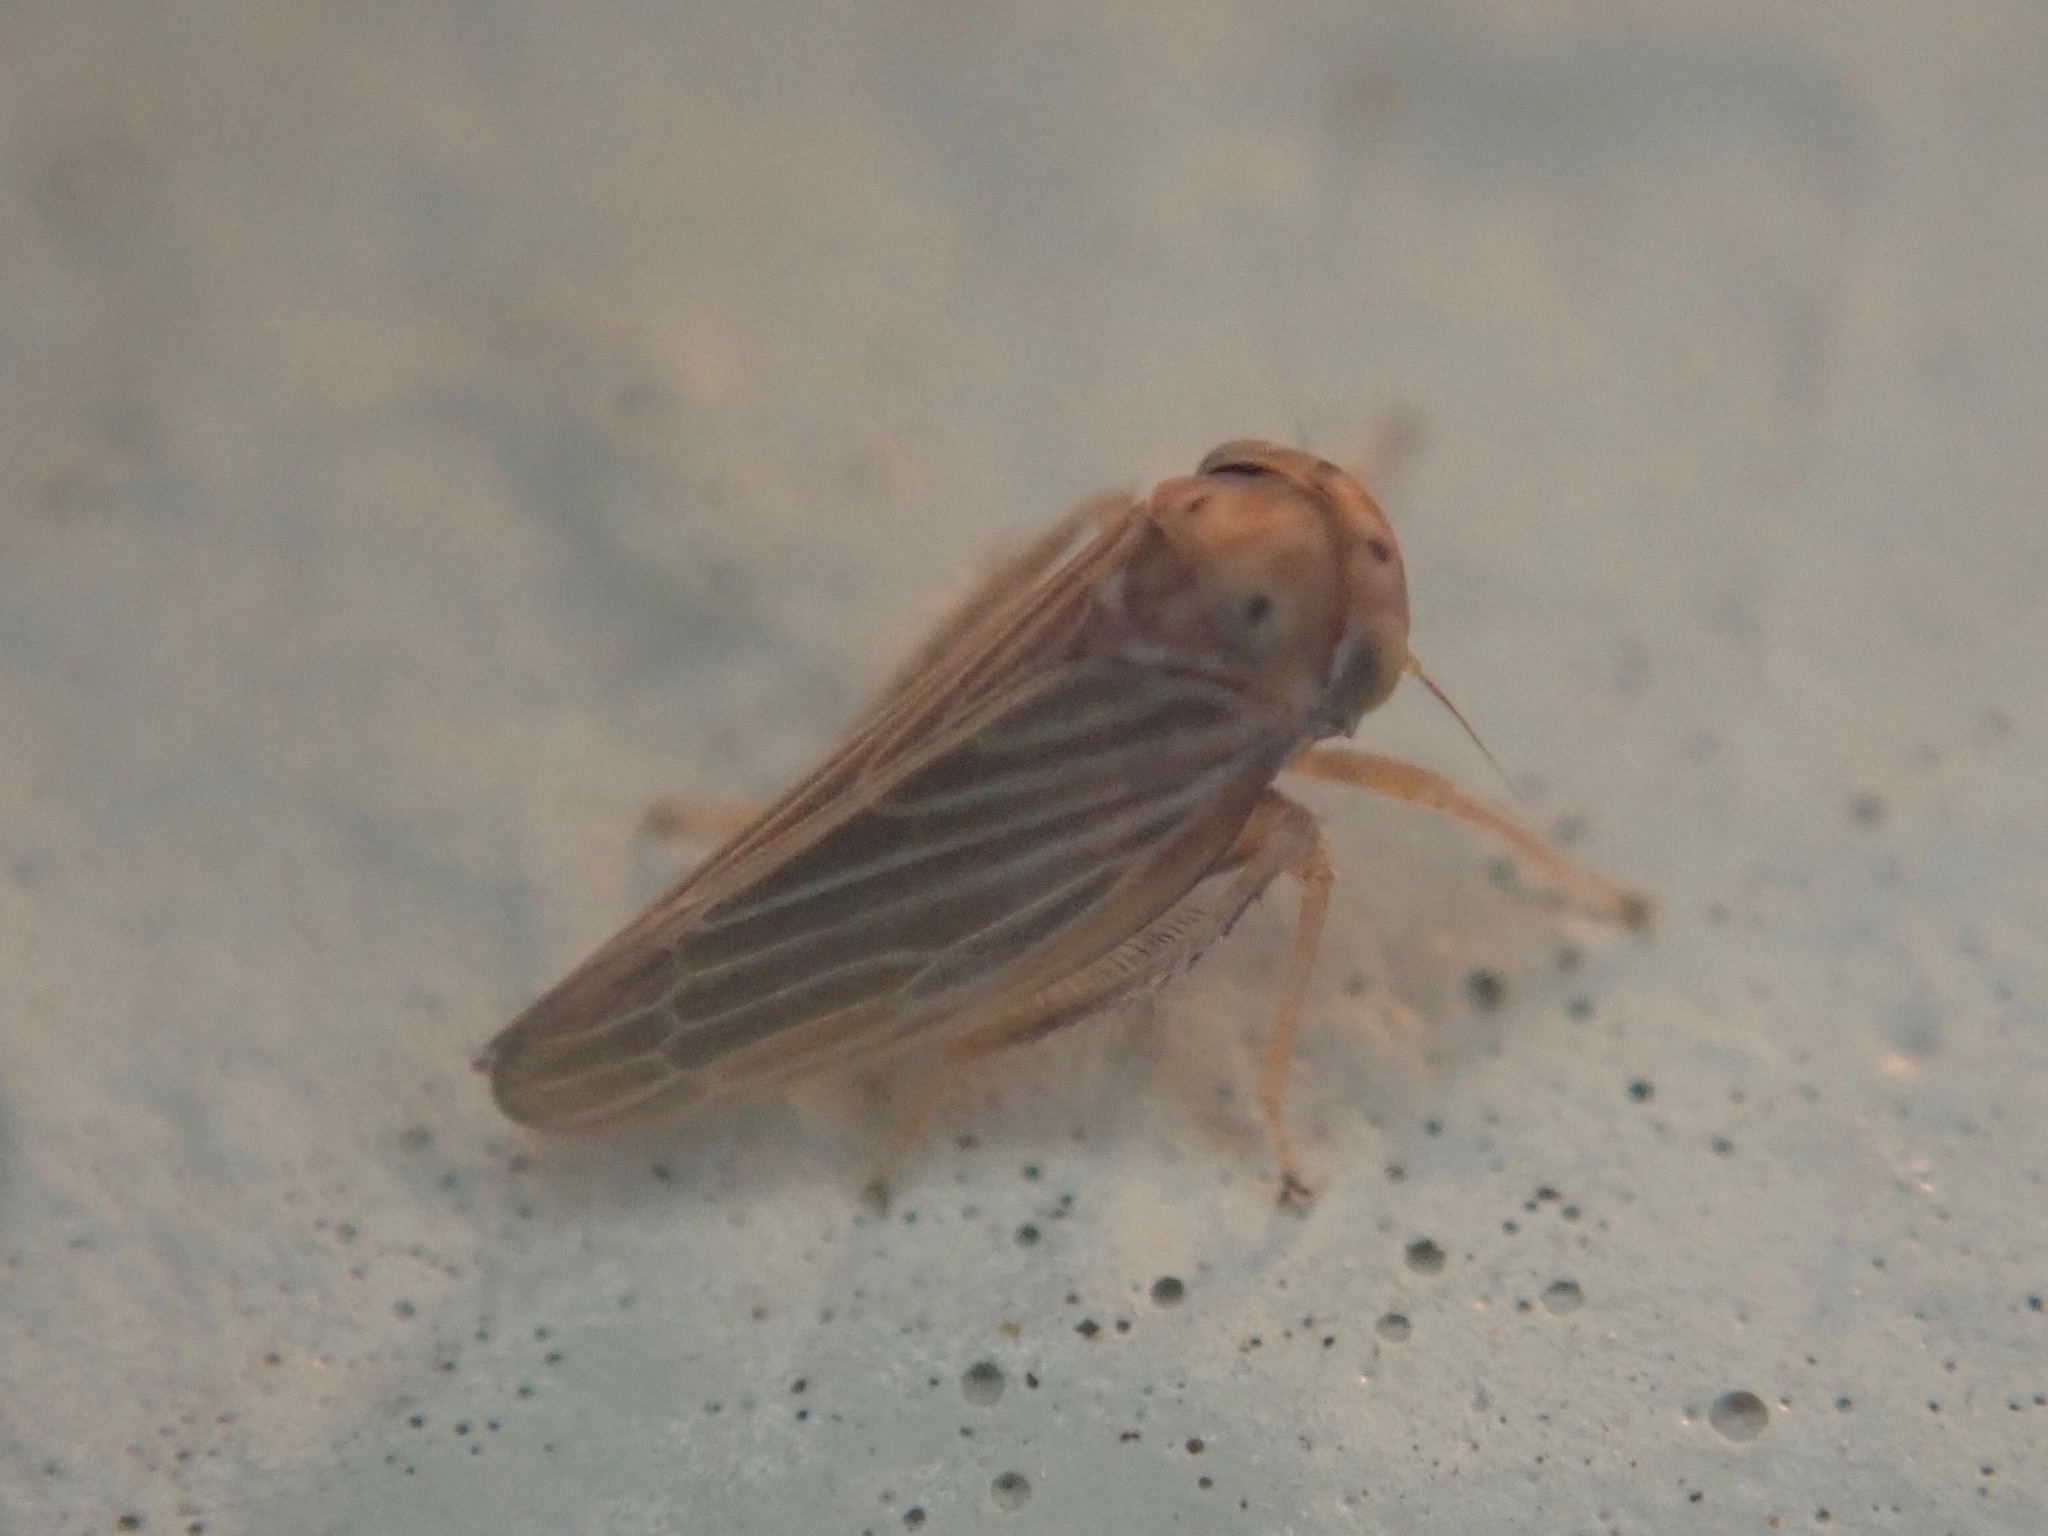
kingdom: Animalia
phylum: Arthropoda
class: Insecta
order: Hemiptera
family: Cicadellidae
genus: Agallia
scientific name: Agallia constricta
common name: The constricted leafhopper
